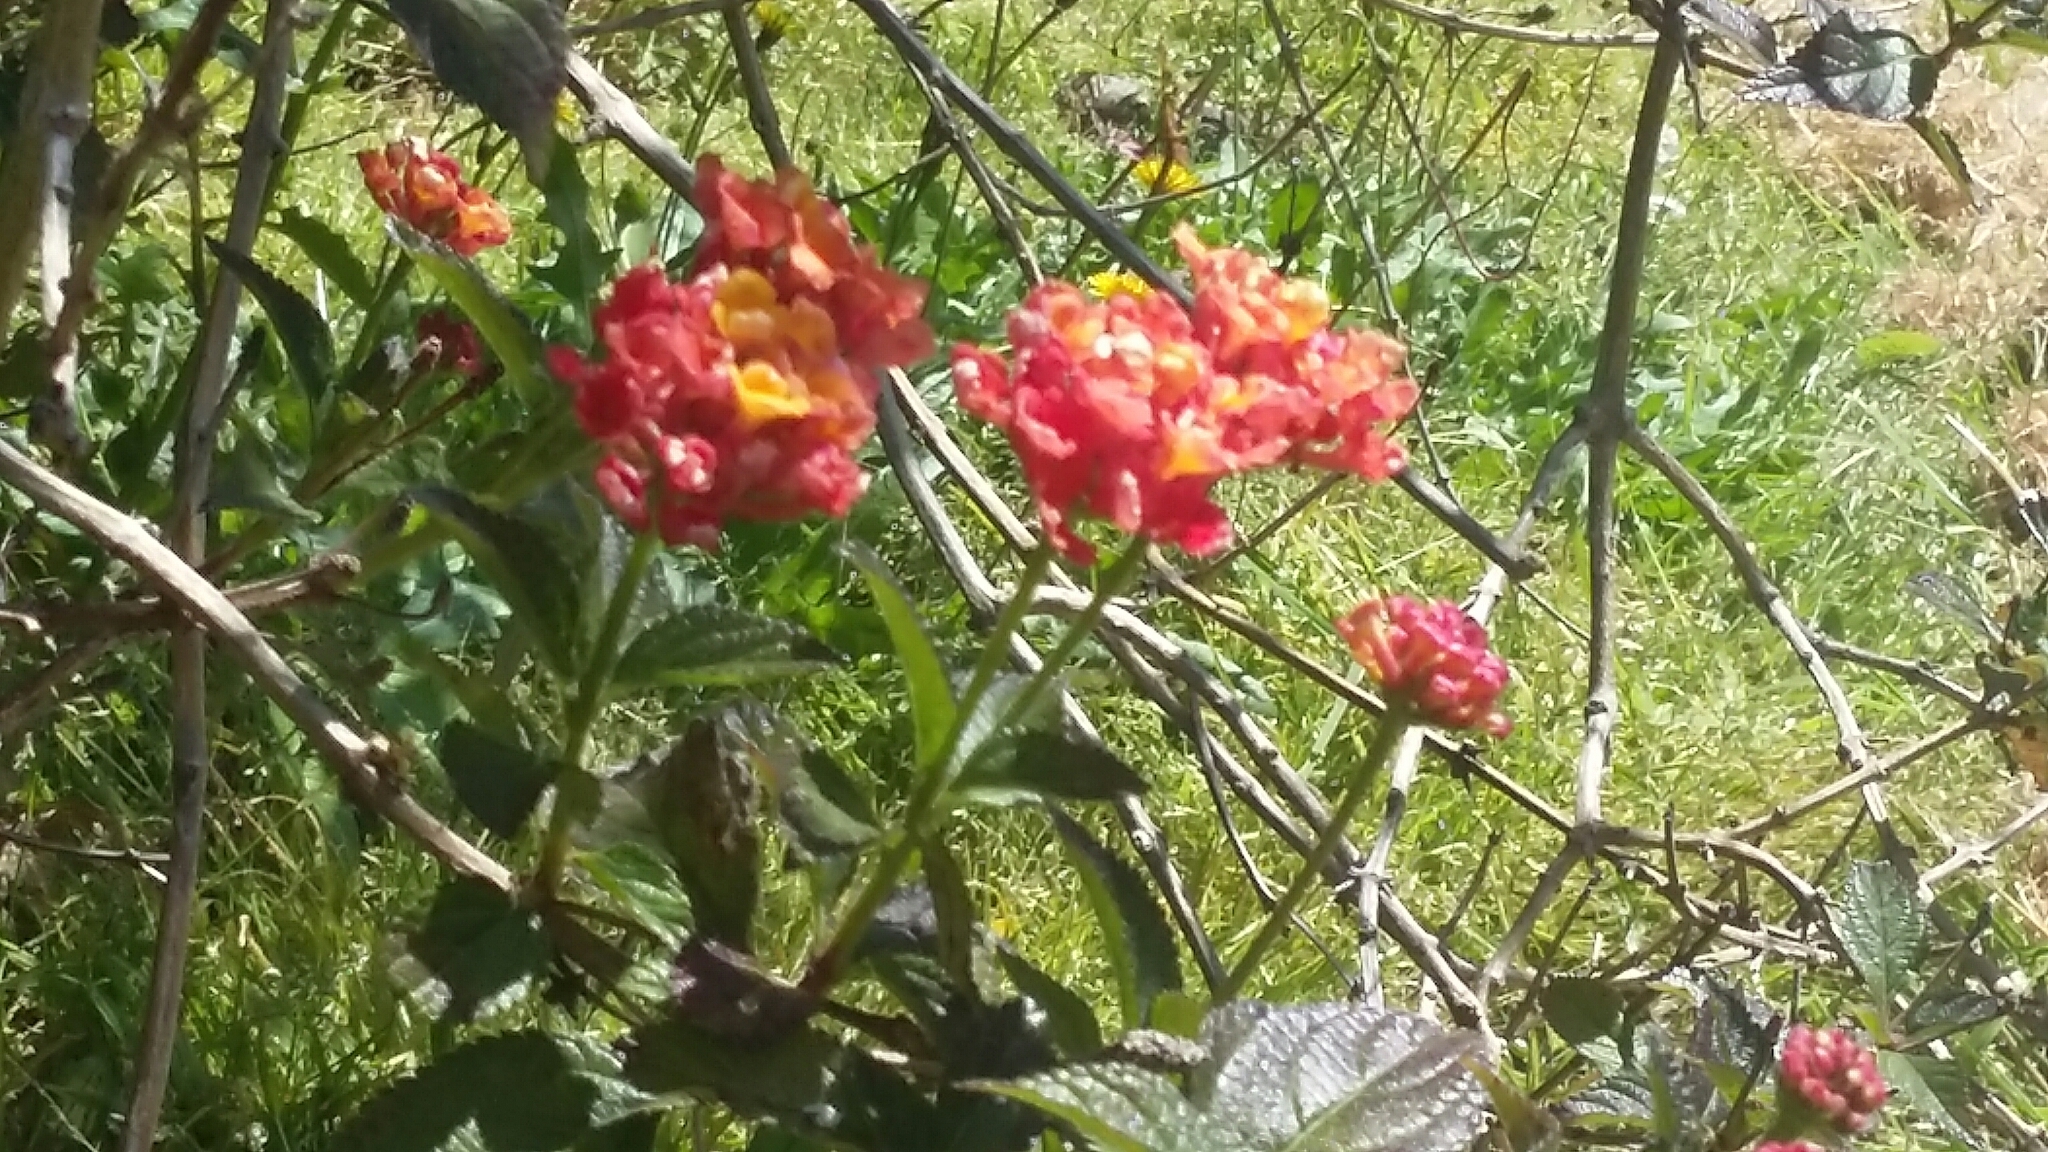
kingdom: Plantae
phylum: Tracheophyta
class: Magnoliopsida
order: Lamiales
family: Verbenaceae
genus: Lantana
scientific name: Lantana camara
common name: Lantana
